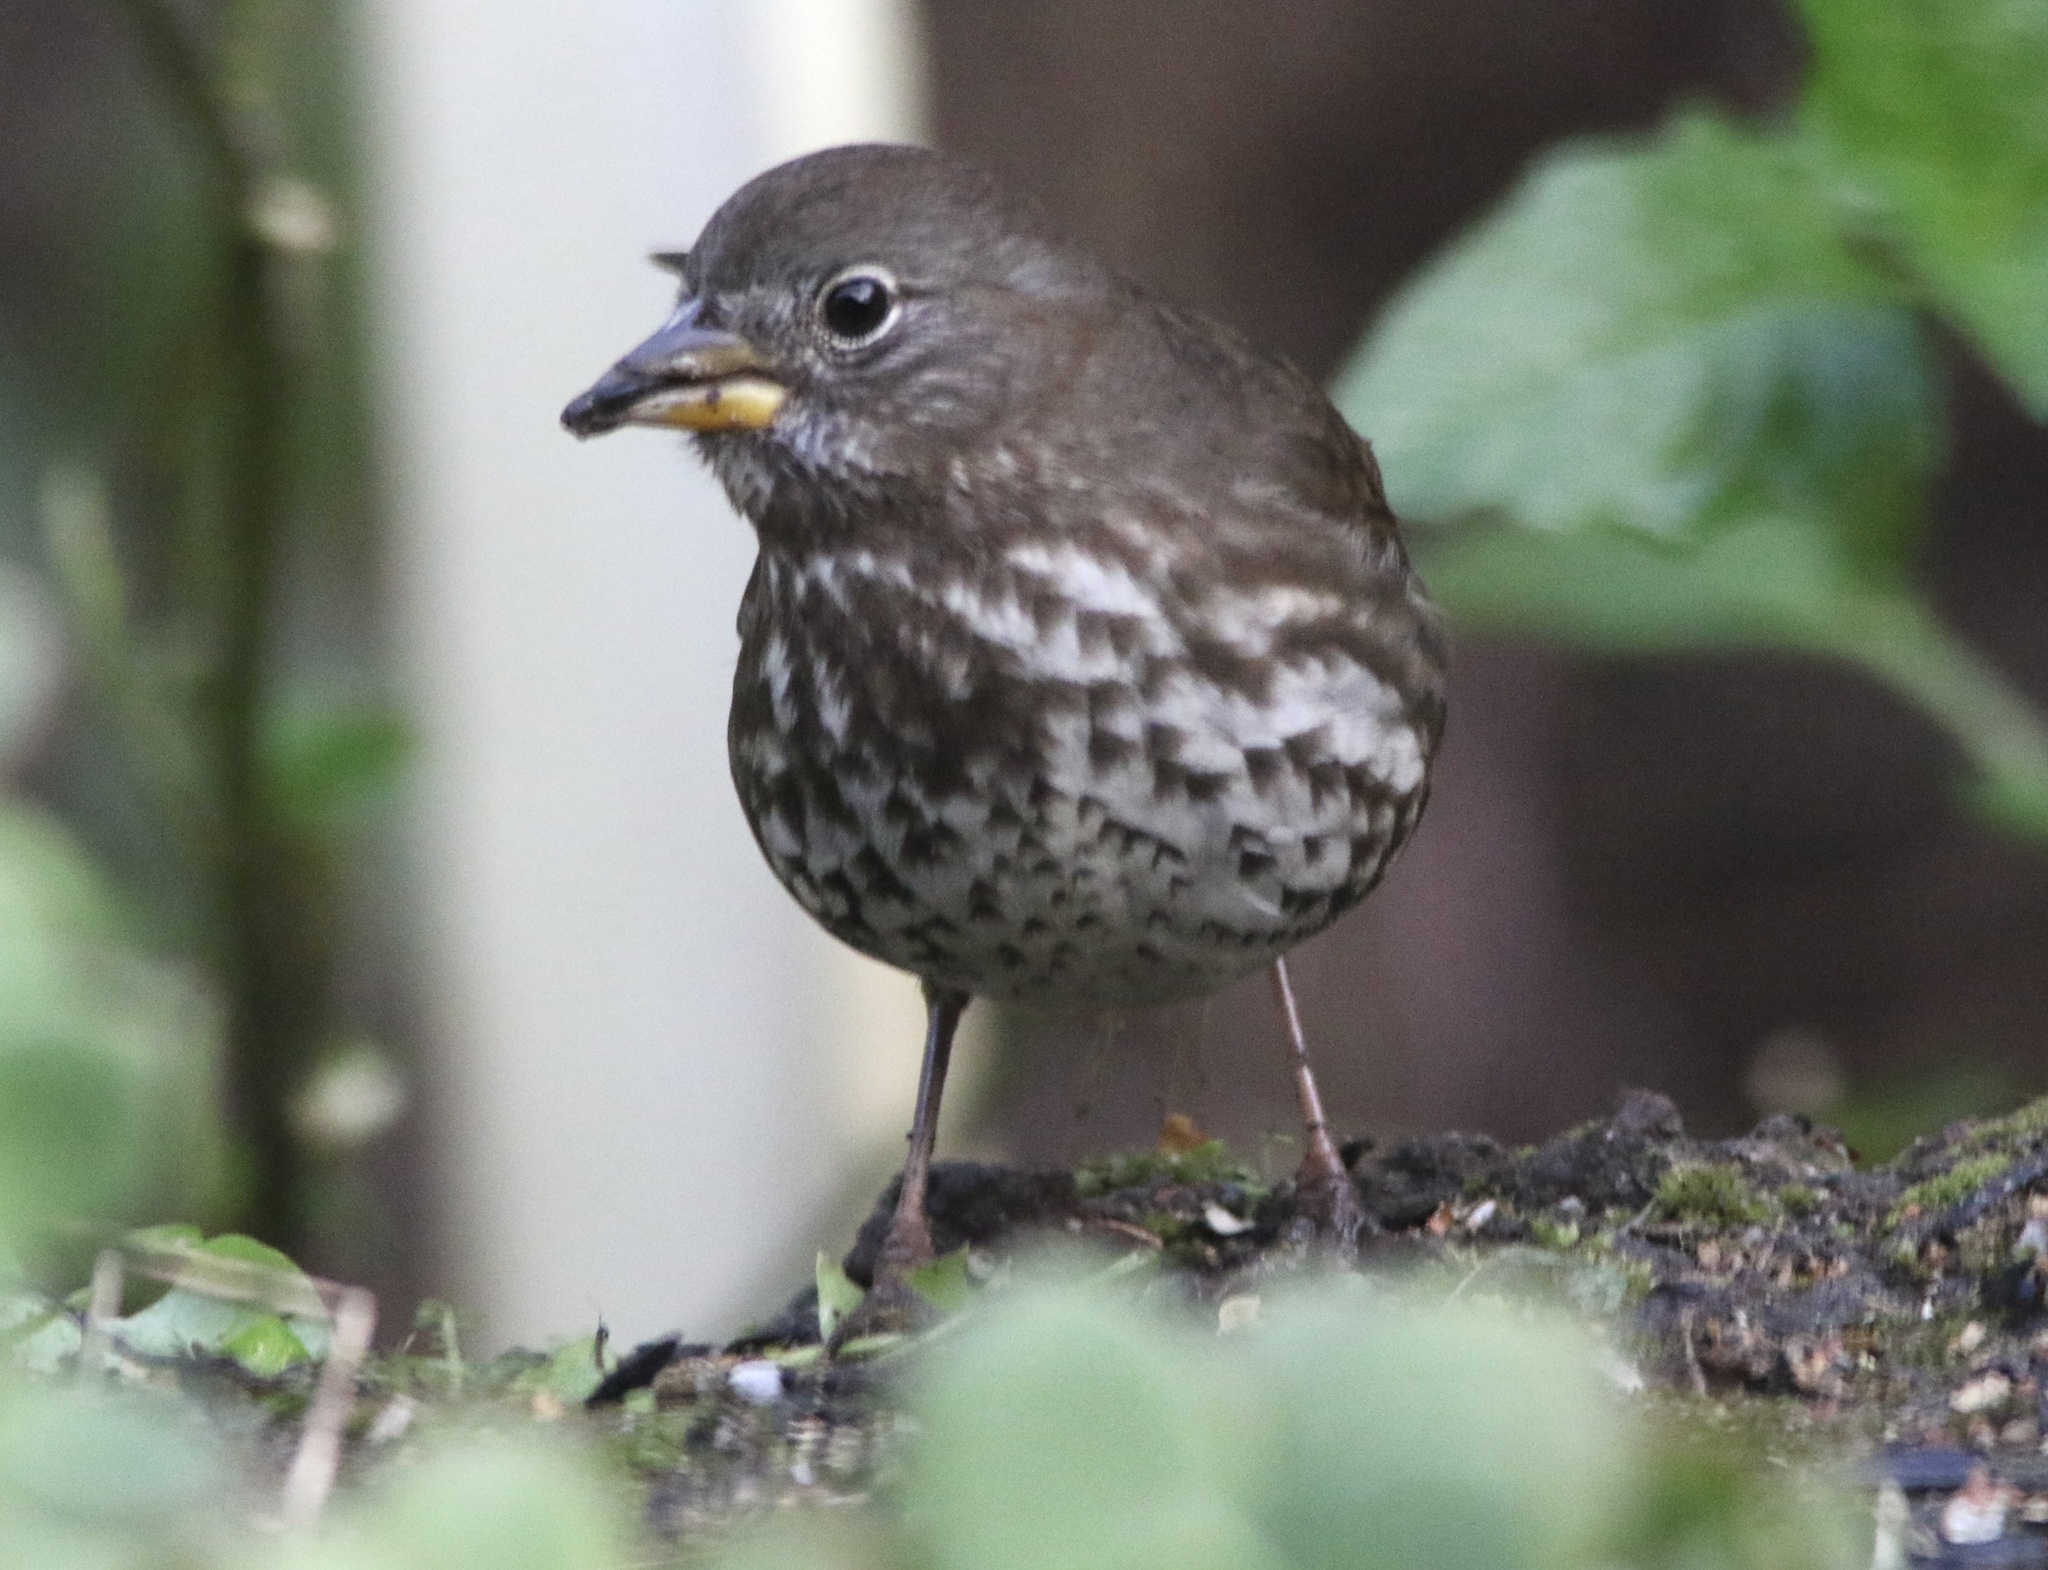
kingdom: Animalia
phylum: Chordata
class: Aves
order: Passeriformes
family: Passerellidae
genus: Passerella
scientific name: Passerella iliaca
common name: Fox sparrow
